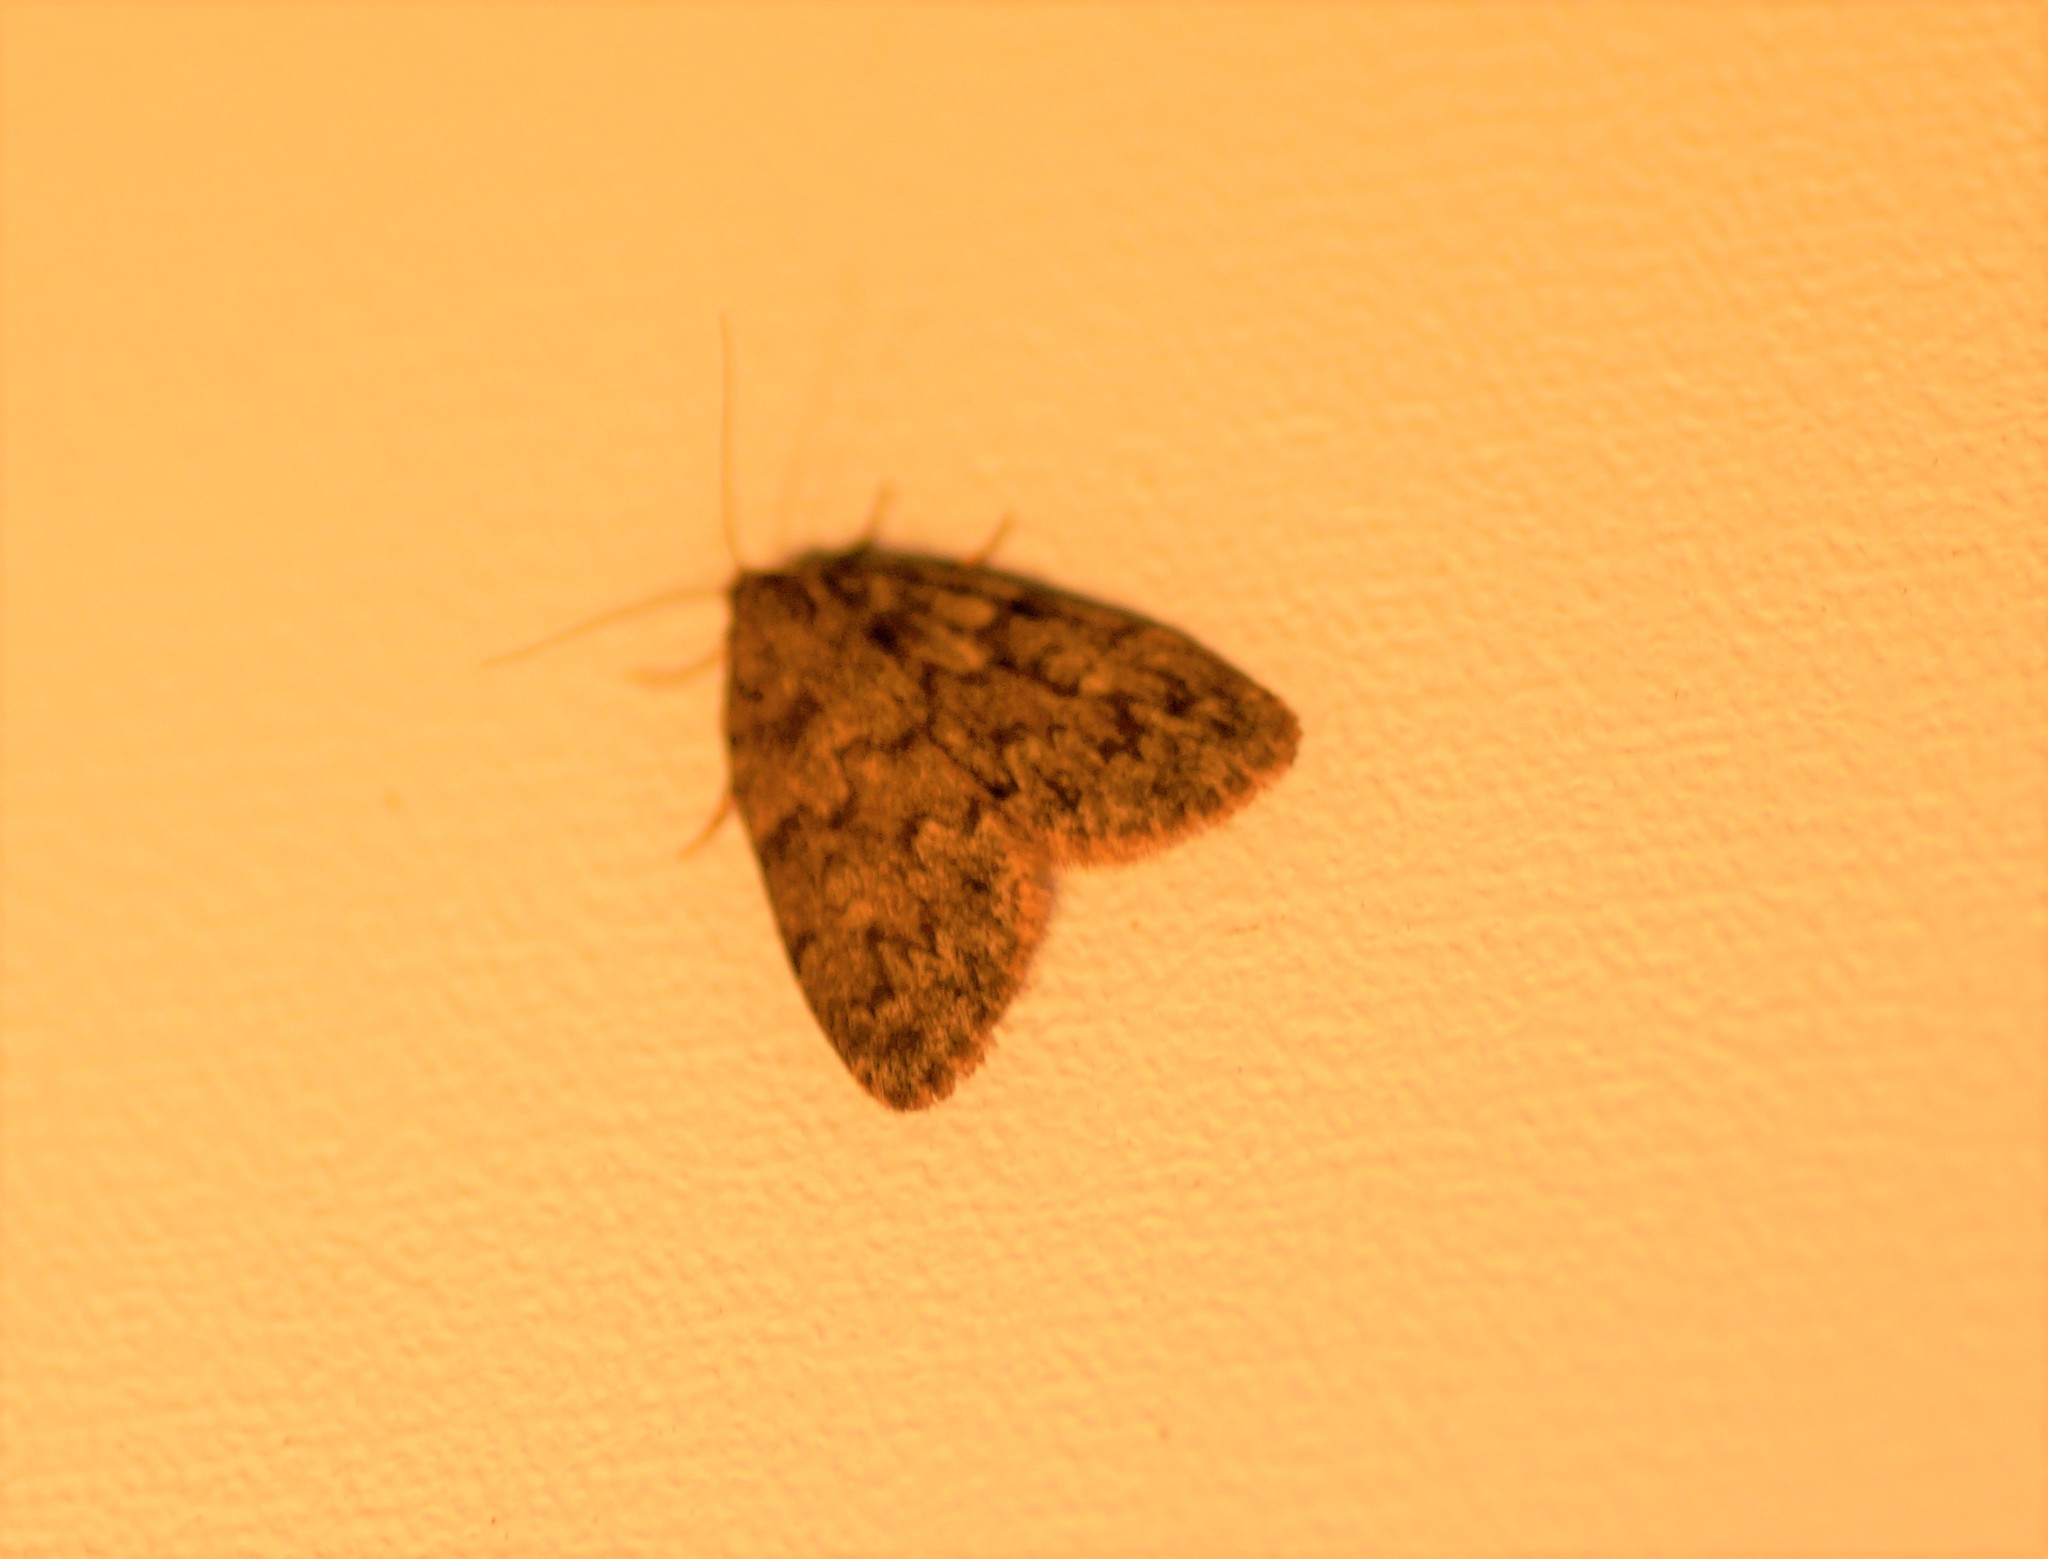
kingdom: Animalia
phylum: Arthropoda
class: Insecta
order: Lepidoptera
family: Erebidae
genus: Halone
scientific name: Halone consolatrix
